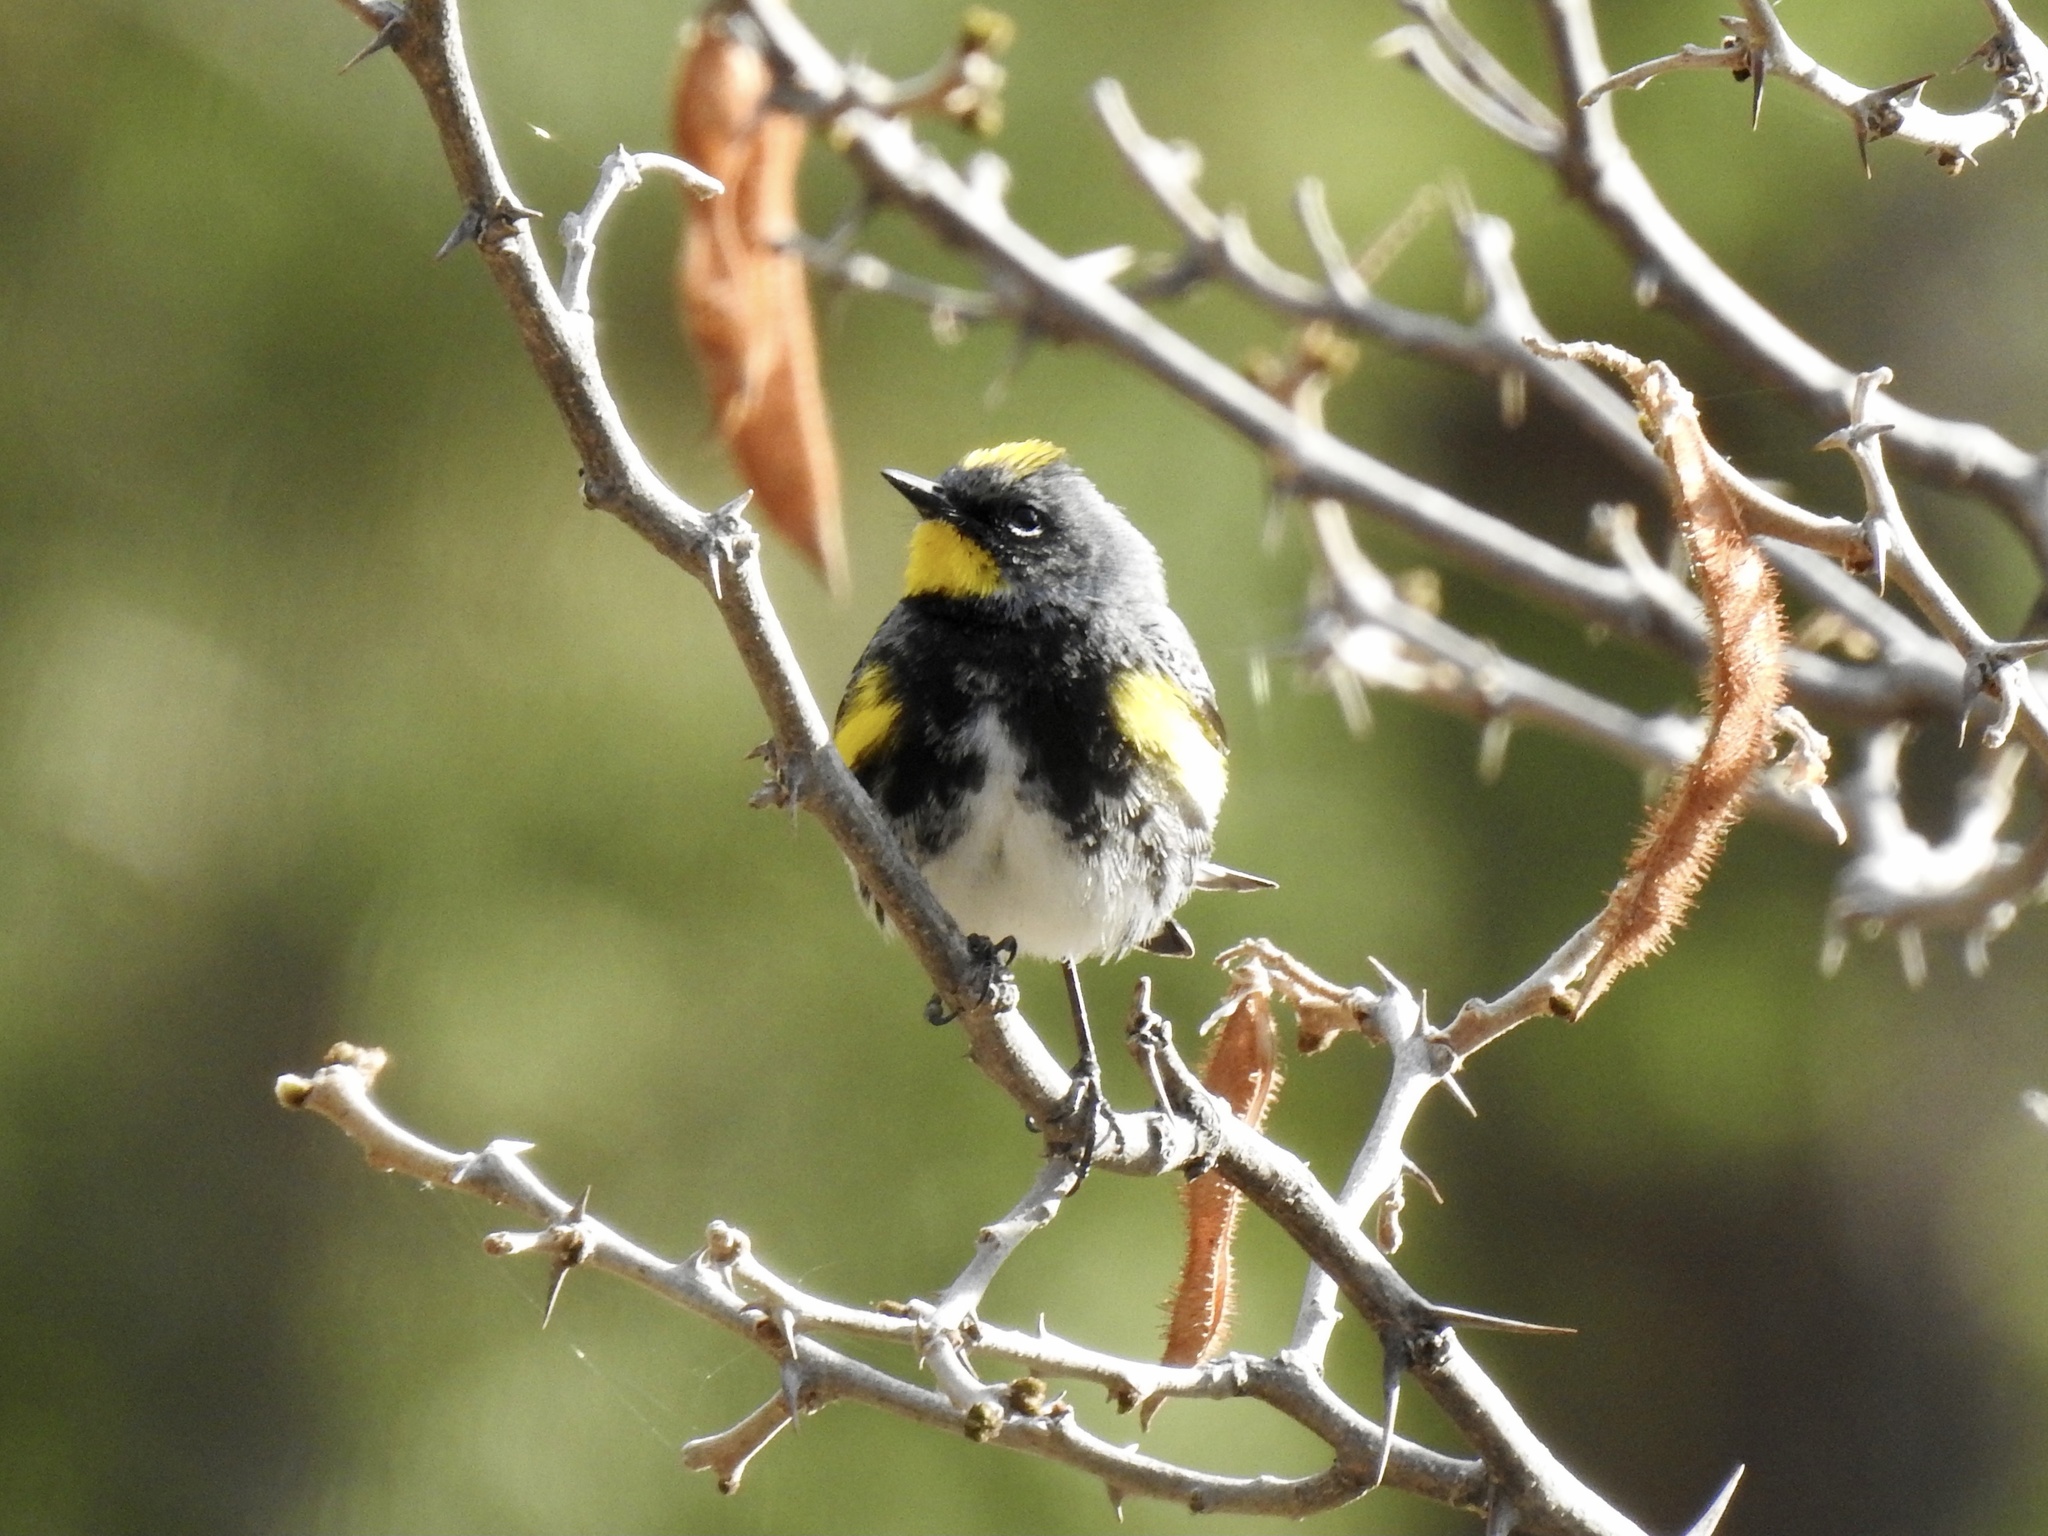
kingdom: Animalia
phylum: Chordata
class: Aves
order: Passeriformes
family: Parulidae
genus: Setophaga
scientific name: Setophaga coronata
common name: Myrtle warbler
